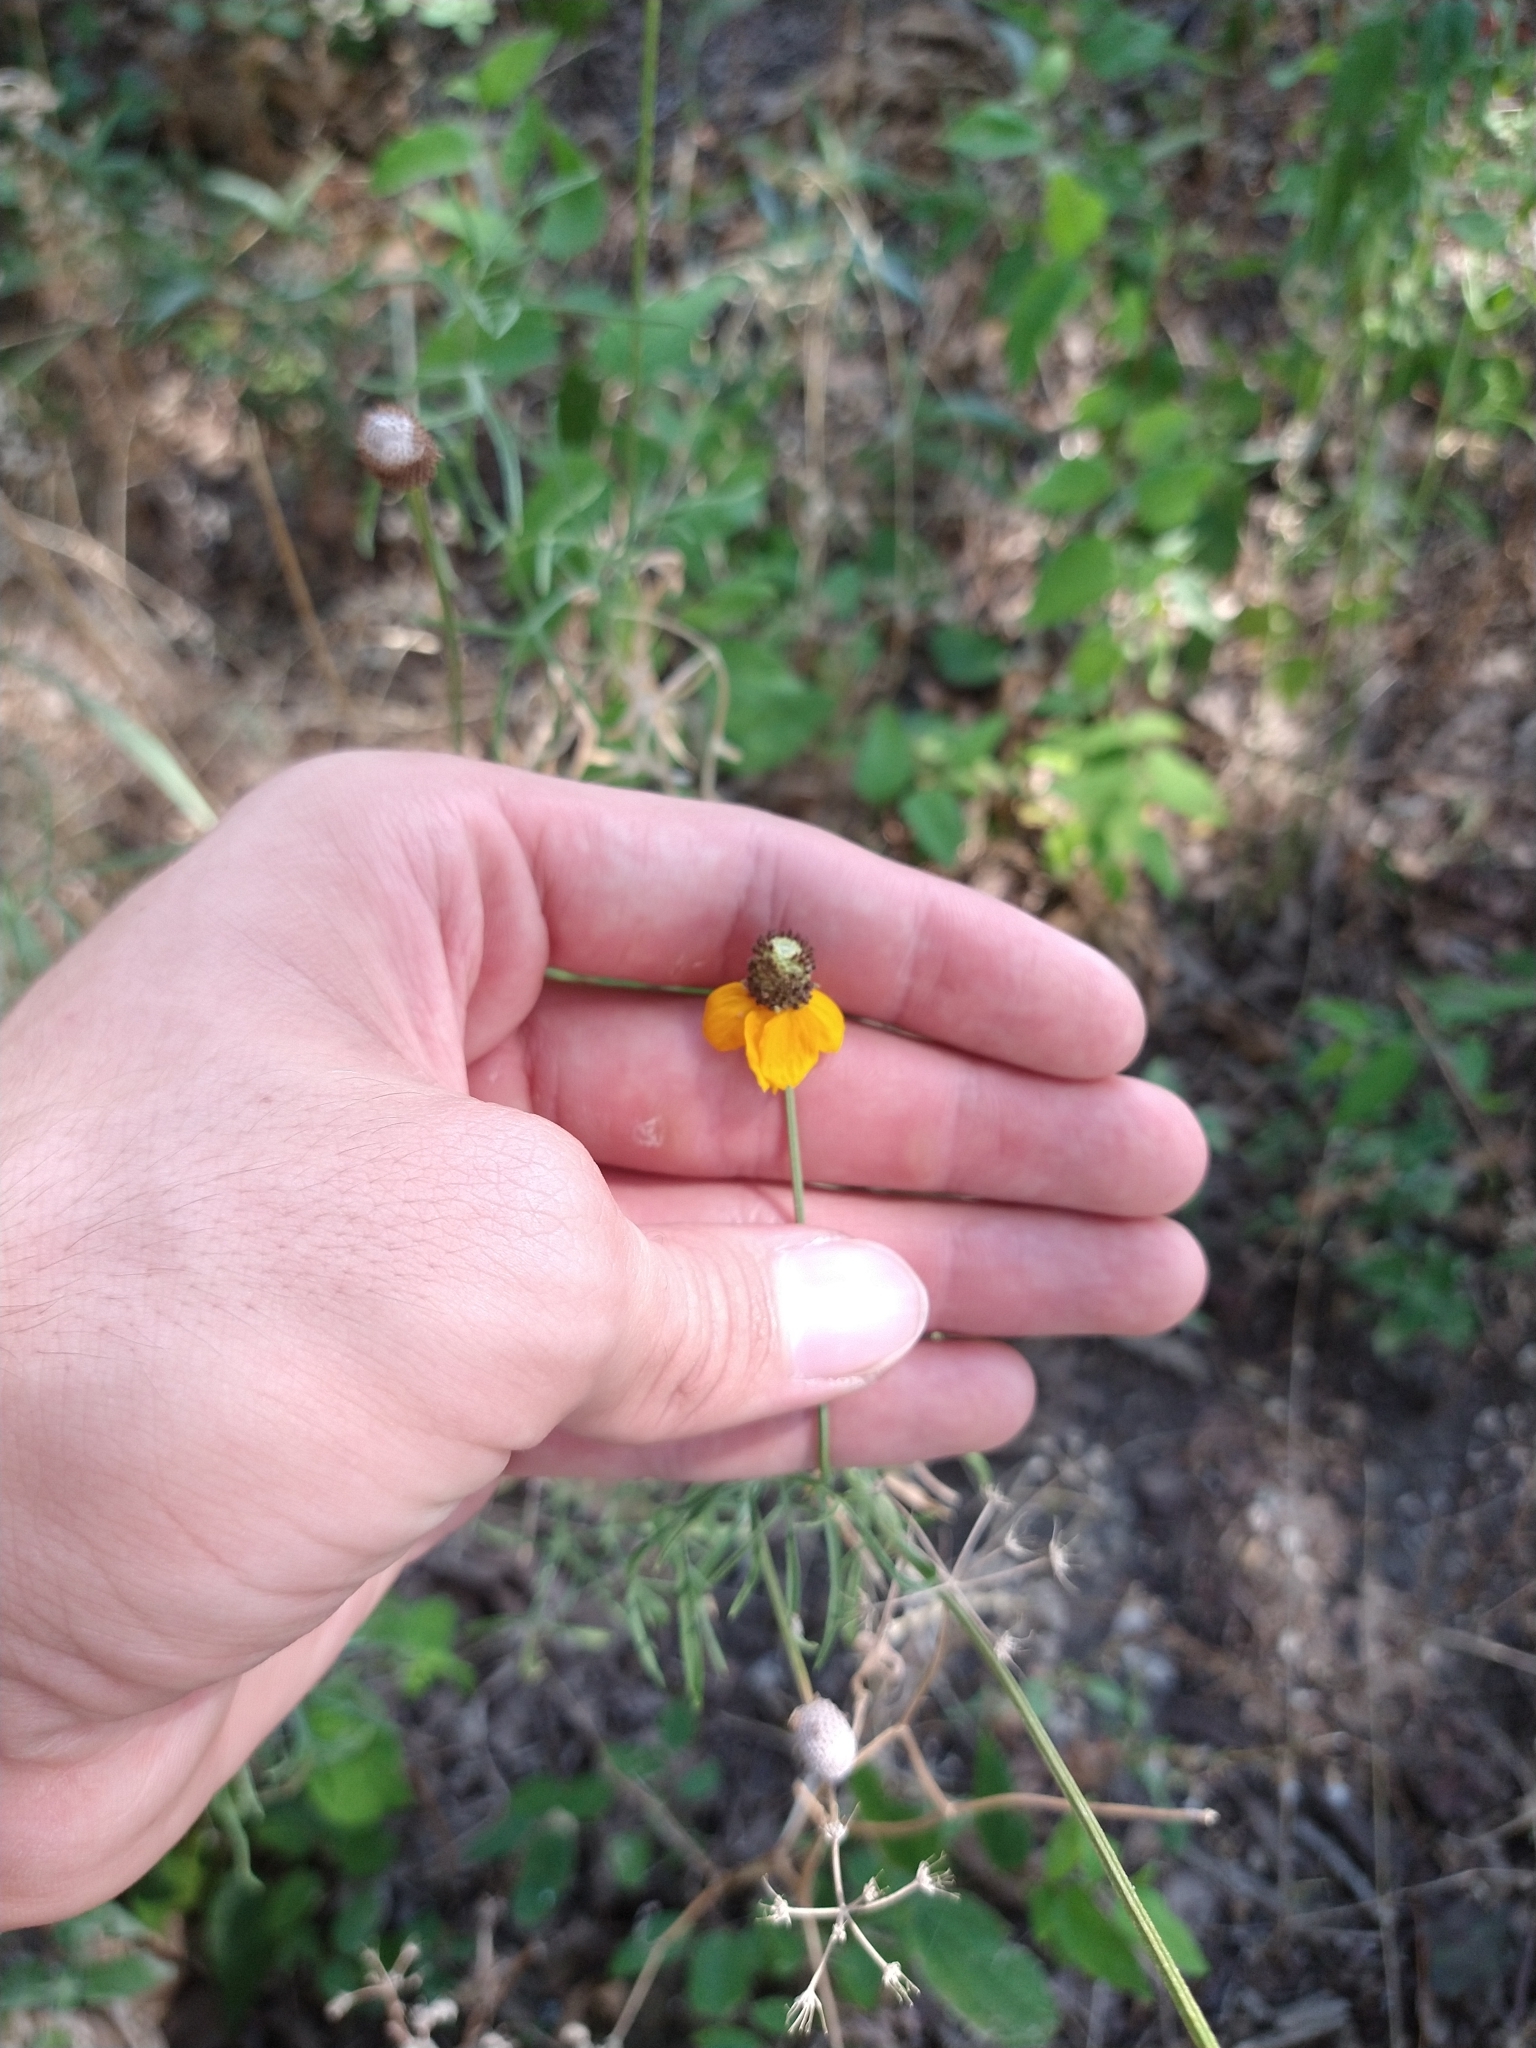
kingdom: Plantae
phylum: Tracheophyta
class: Magnoliopsida
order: Asterales
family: Asteraceae
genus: Ratibida
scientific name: Ratibida columnifera
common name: Prairie coneflower
